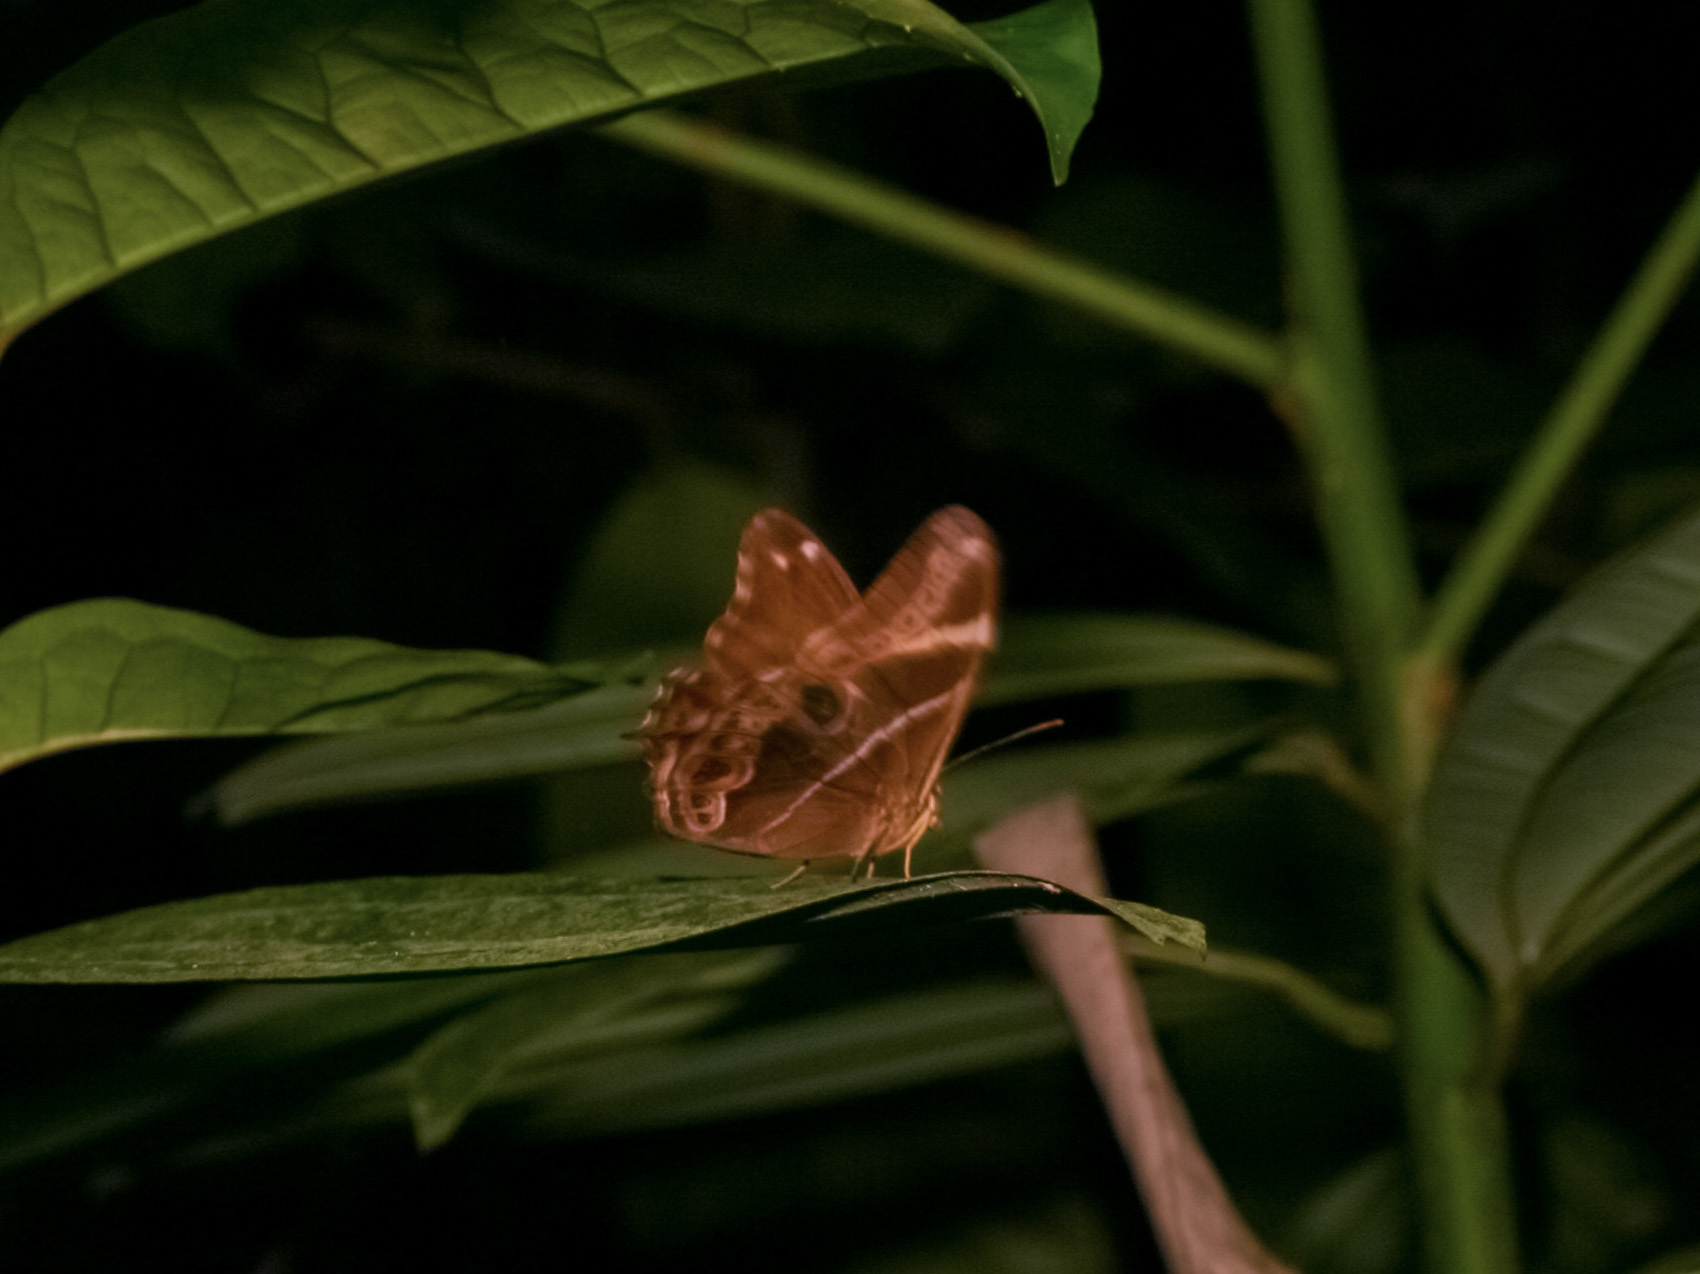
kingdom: Animalia
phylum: Arthropoda
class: Insecta
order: Lepidoptera
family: Nymphalidae
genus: Lethe
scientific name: Lethe europa
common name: Bamboo treebrown
